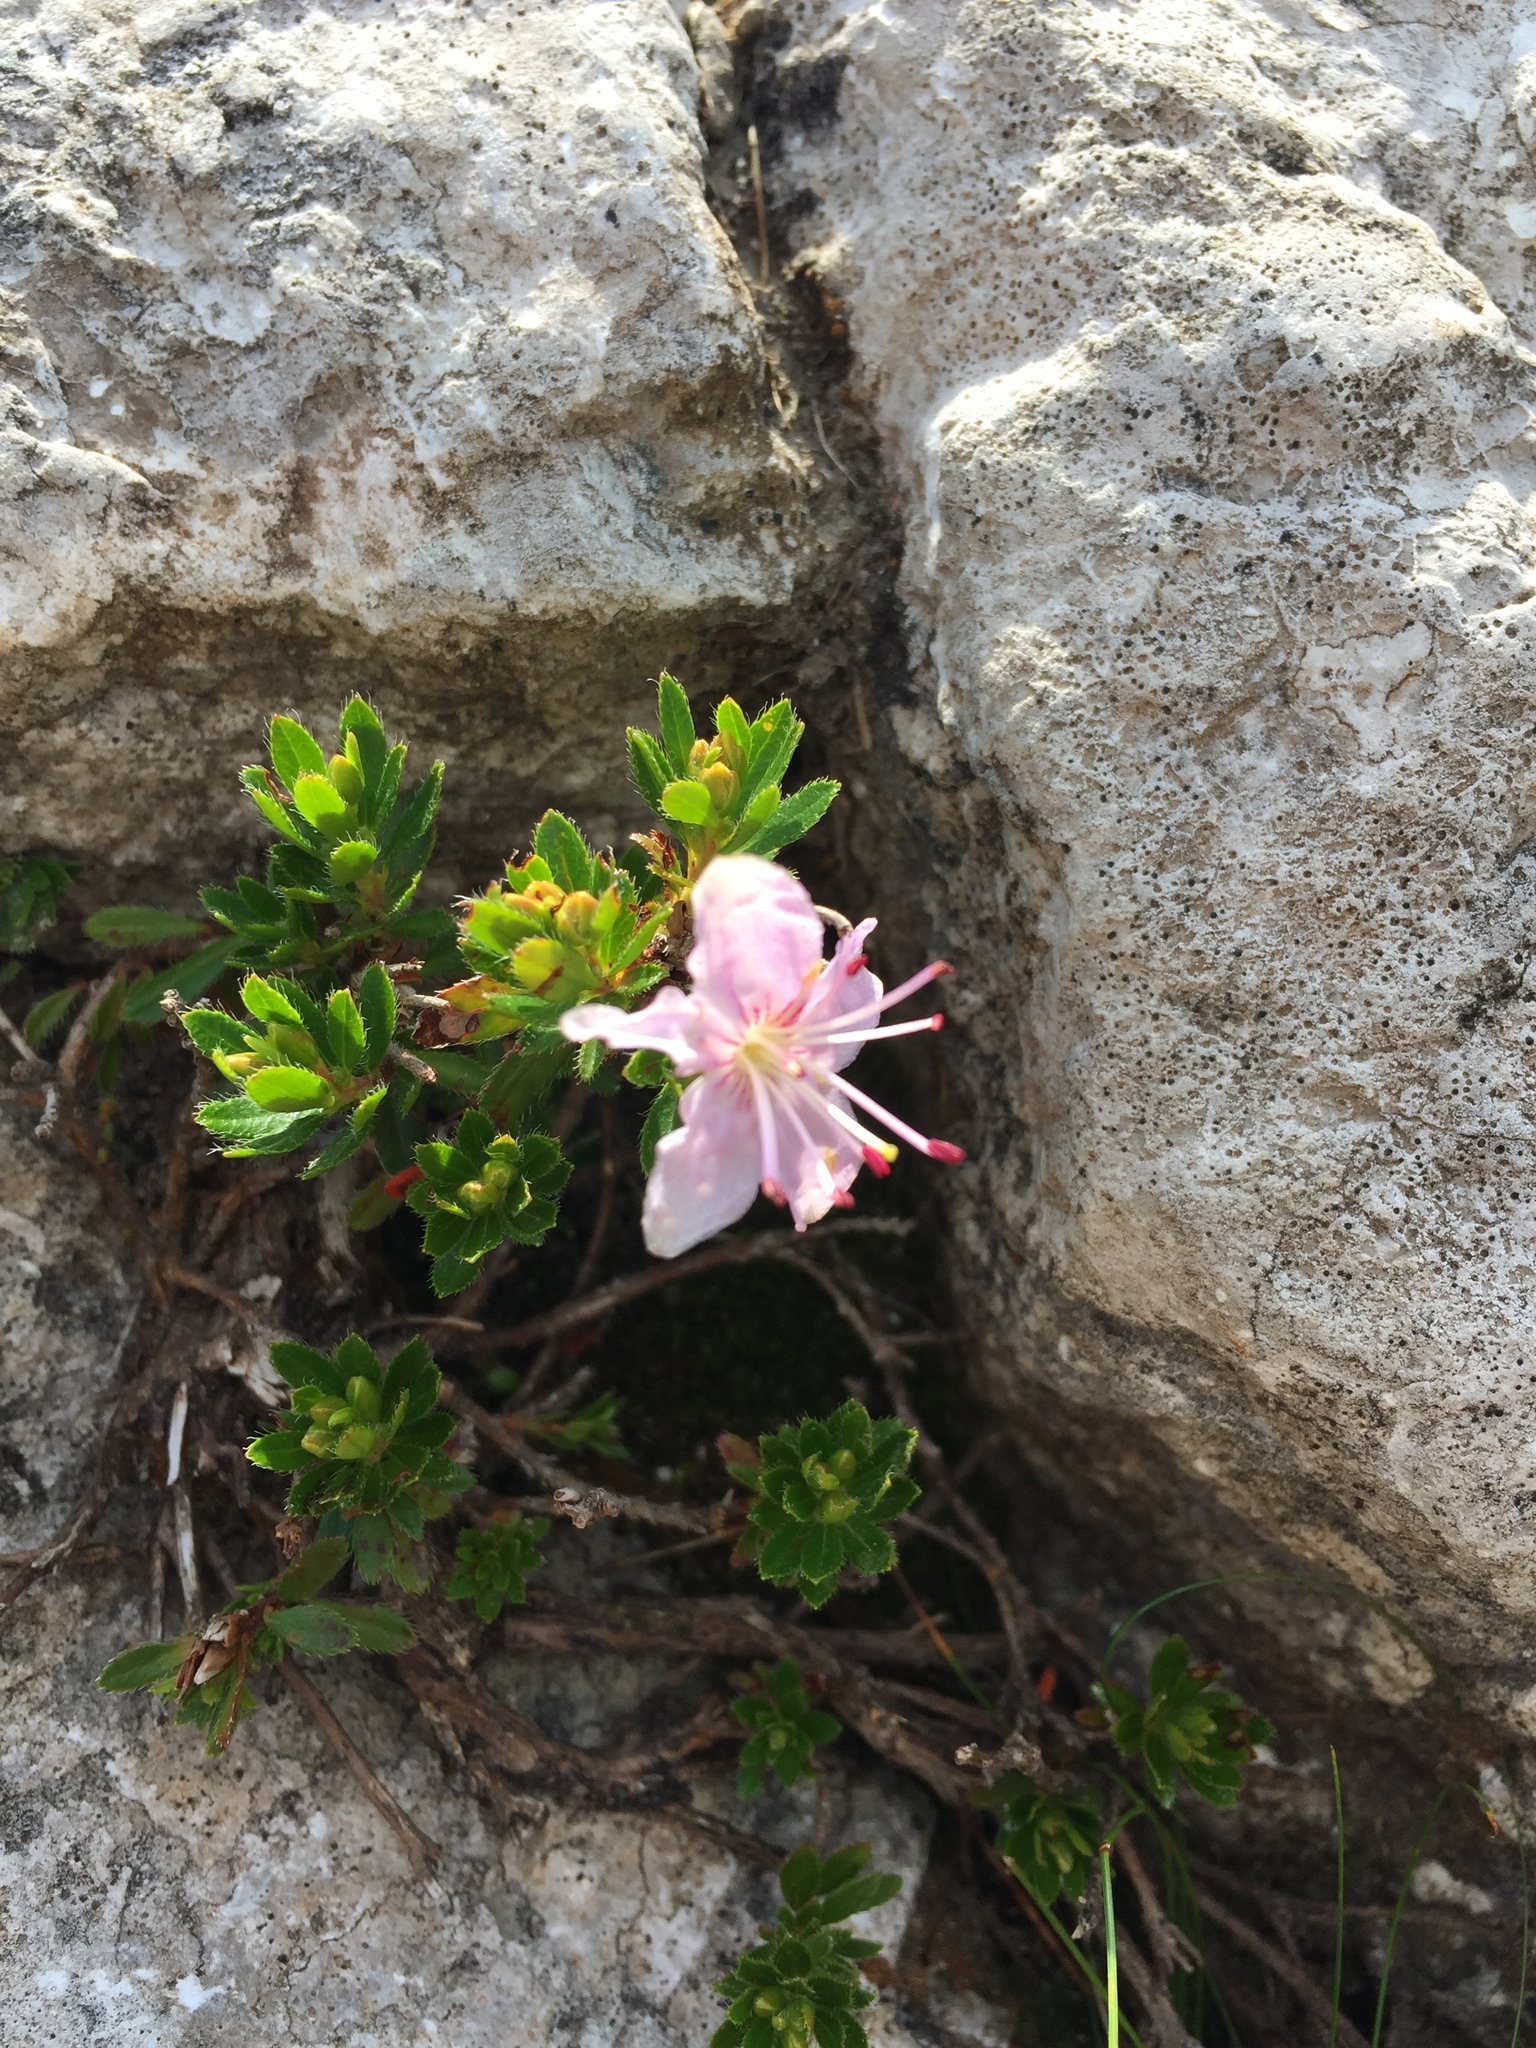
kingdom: Plantae
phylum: Tracheophyta
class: Magnoliopsida
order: Ericales
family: Ericaceae
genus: Rhodothamnus
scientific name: Rhodothamnus chamaecistus
